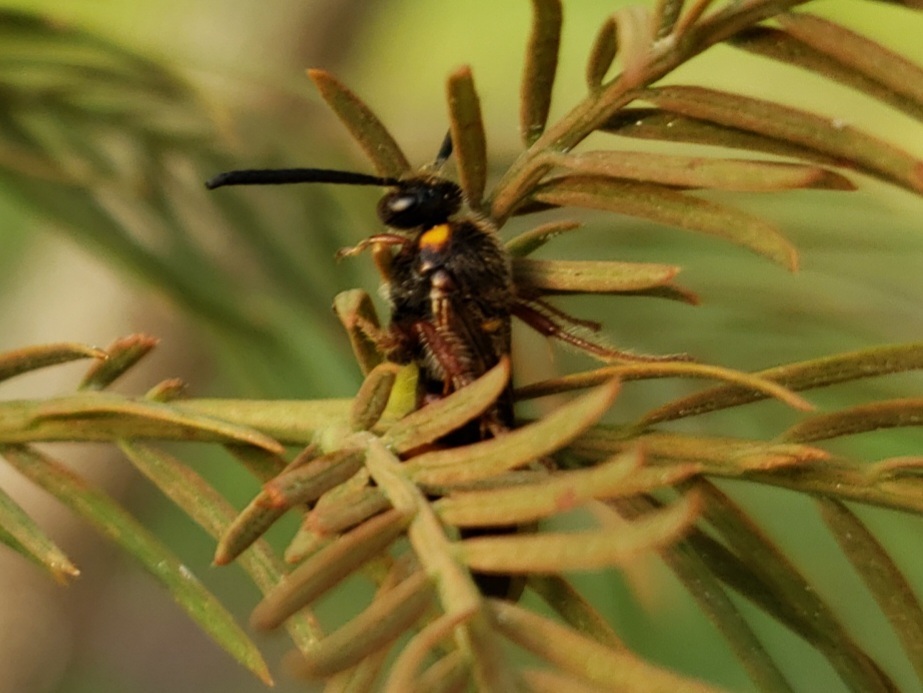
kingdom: Animalia
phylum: Arthropoda
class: Insecta
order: Hymenoptera
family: Scoliidae
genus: Scolia
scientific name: Scolia nobilitata
